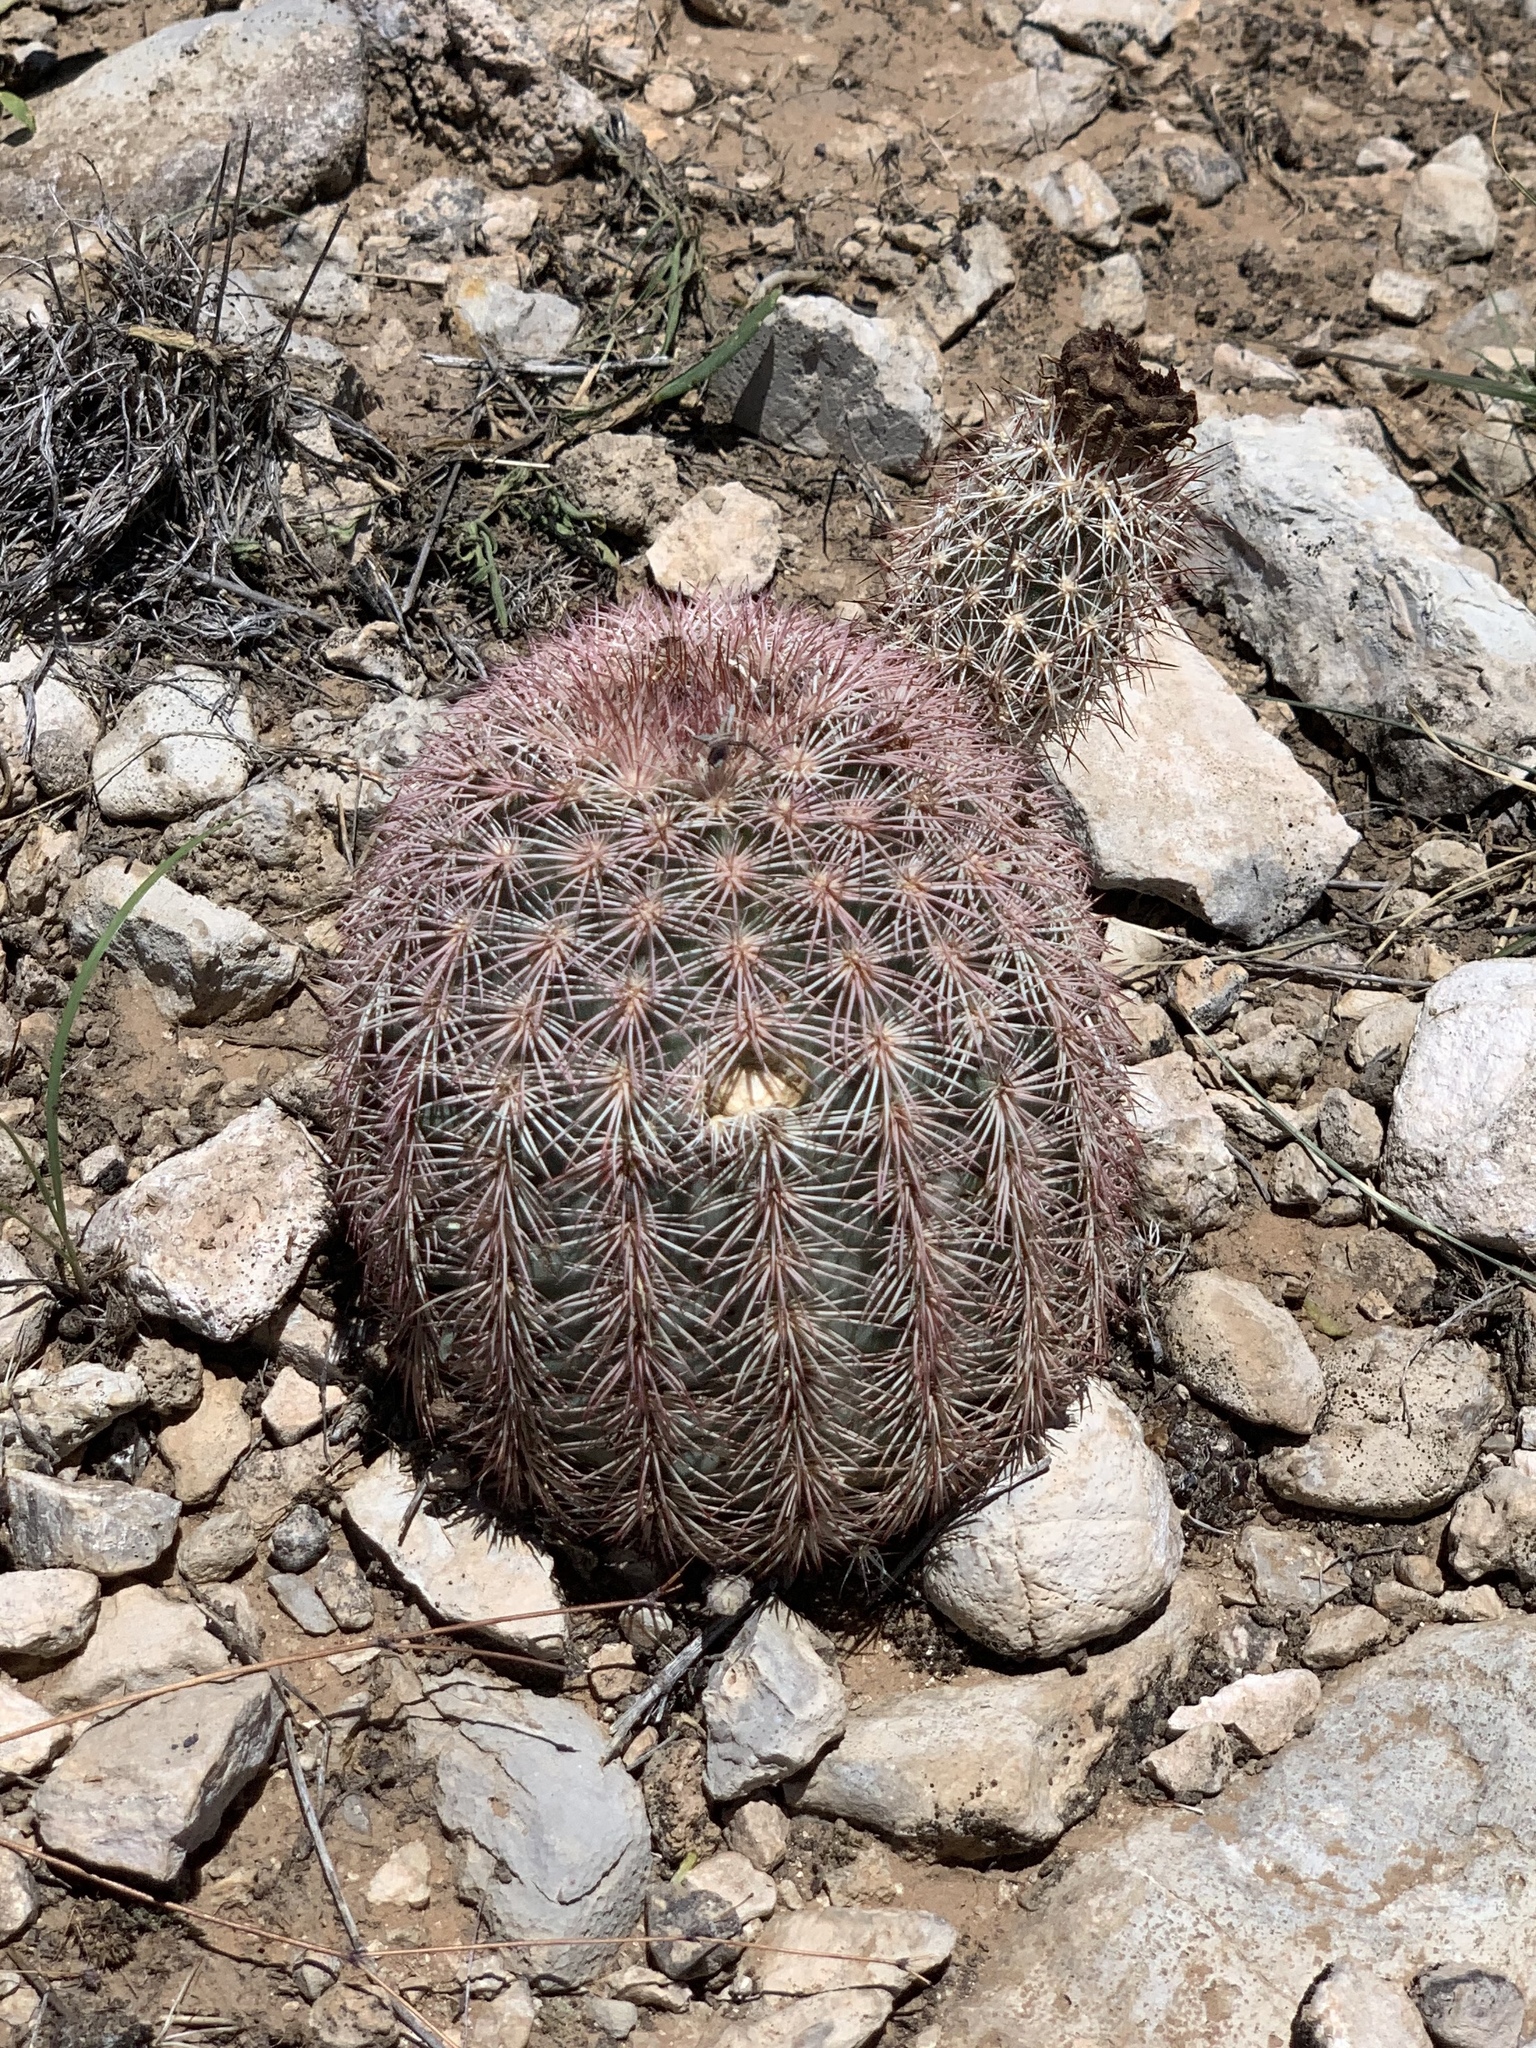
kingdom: Plantae
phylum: Tracheophyta
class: Magnoliopsida
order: Caryophyllales
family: Cactaceae
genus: Echinocereus
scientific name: Echinocereus dasyacanthus
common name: Spiny hedgehog cactus
